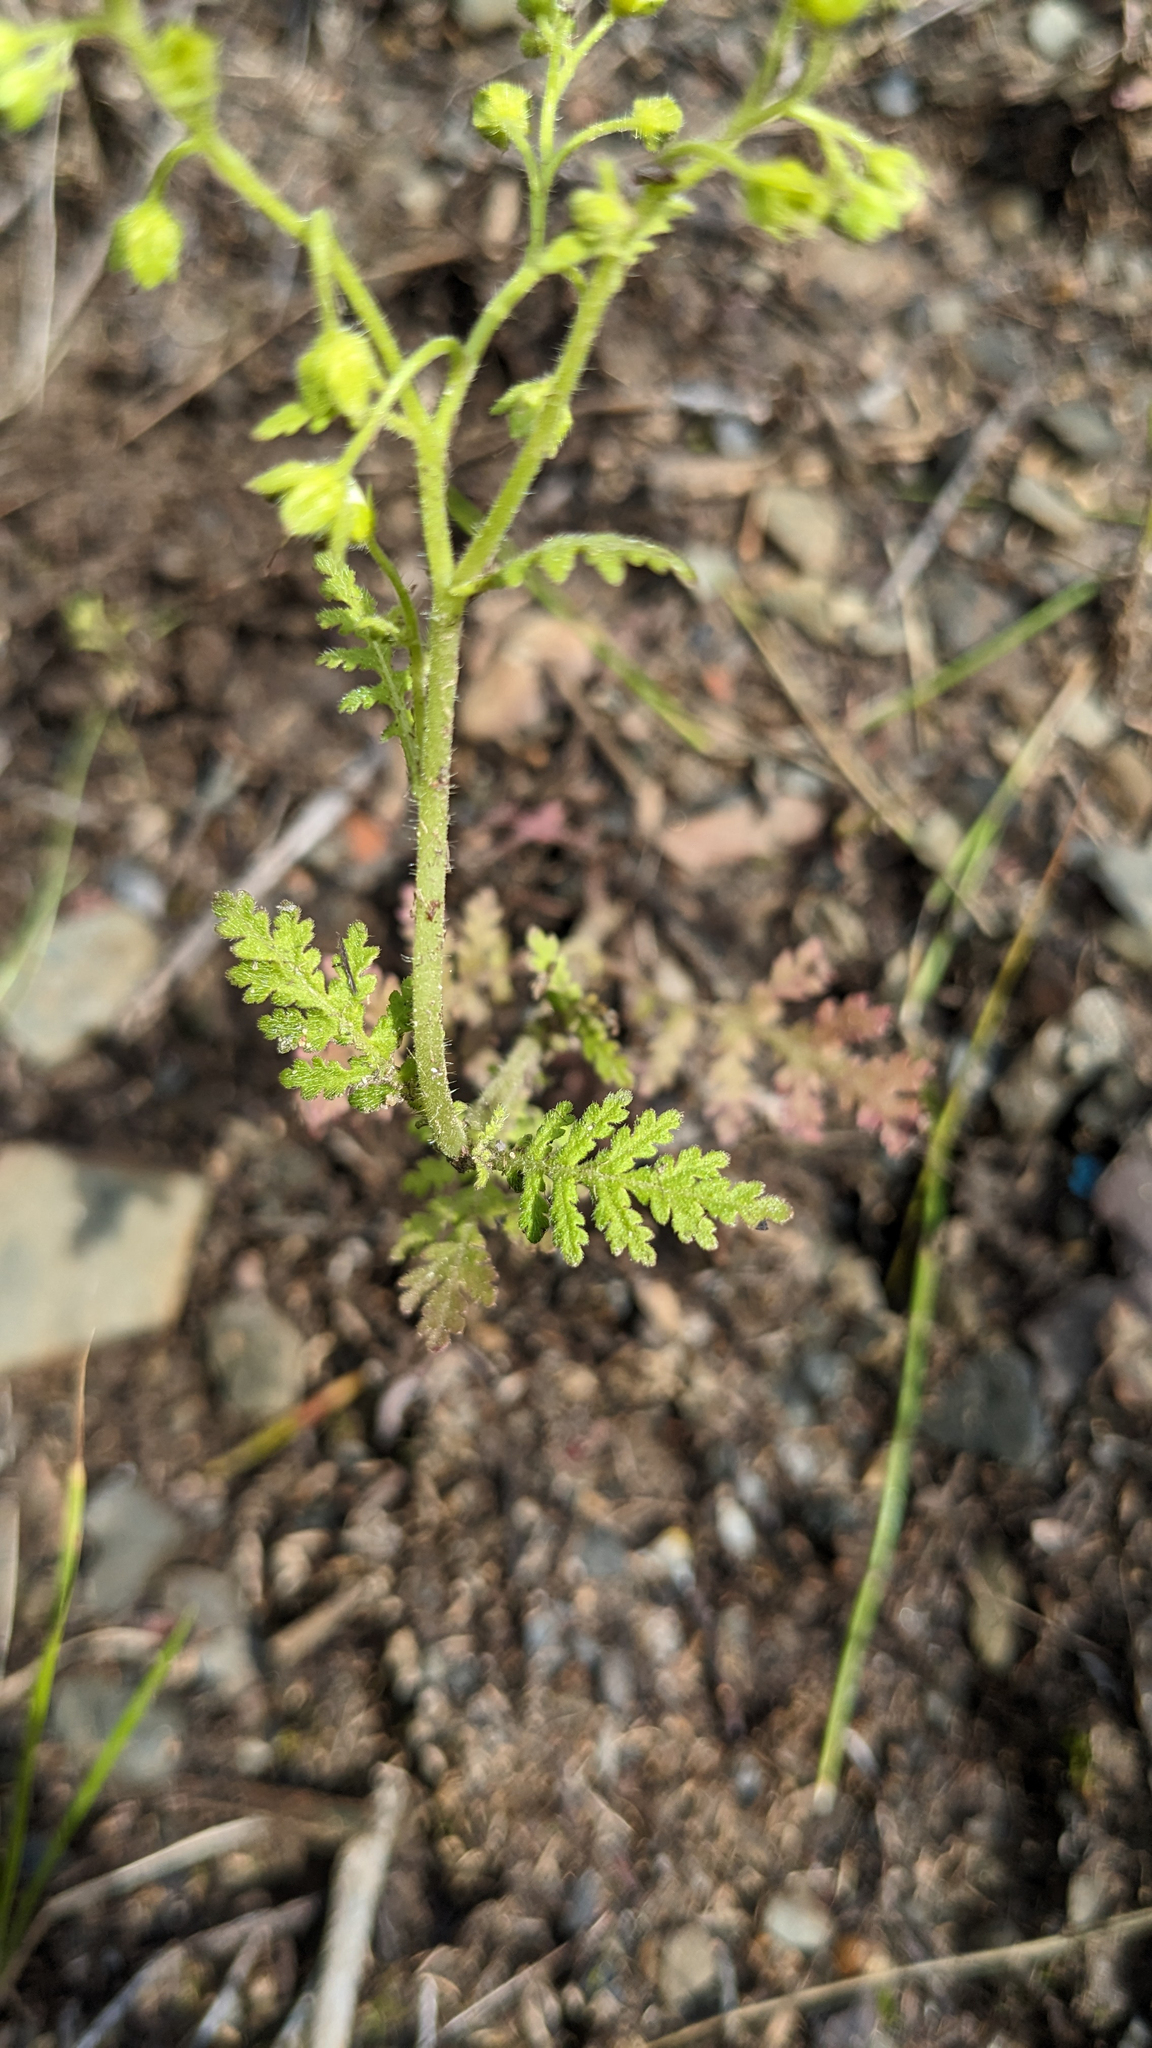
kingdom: Plantae
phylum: Tracheophyta
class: Magnoliopsida
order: Boraginales
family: Hydrophyllaceae
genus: Eucrypta
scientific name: Eucrypta chrysanthemifolia
